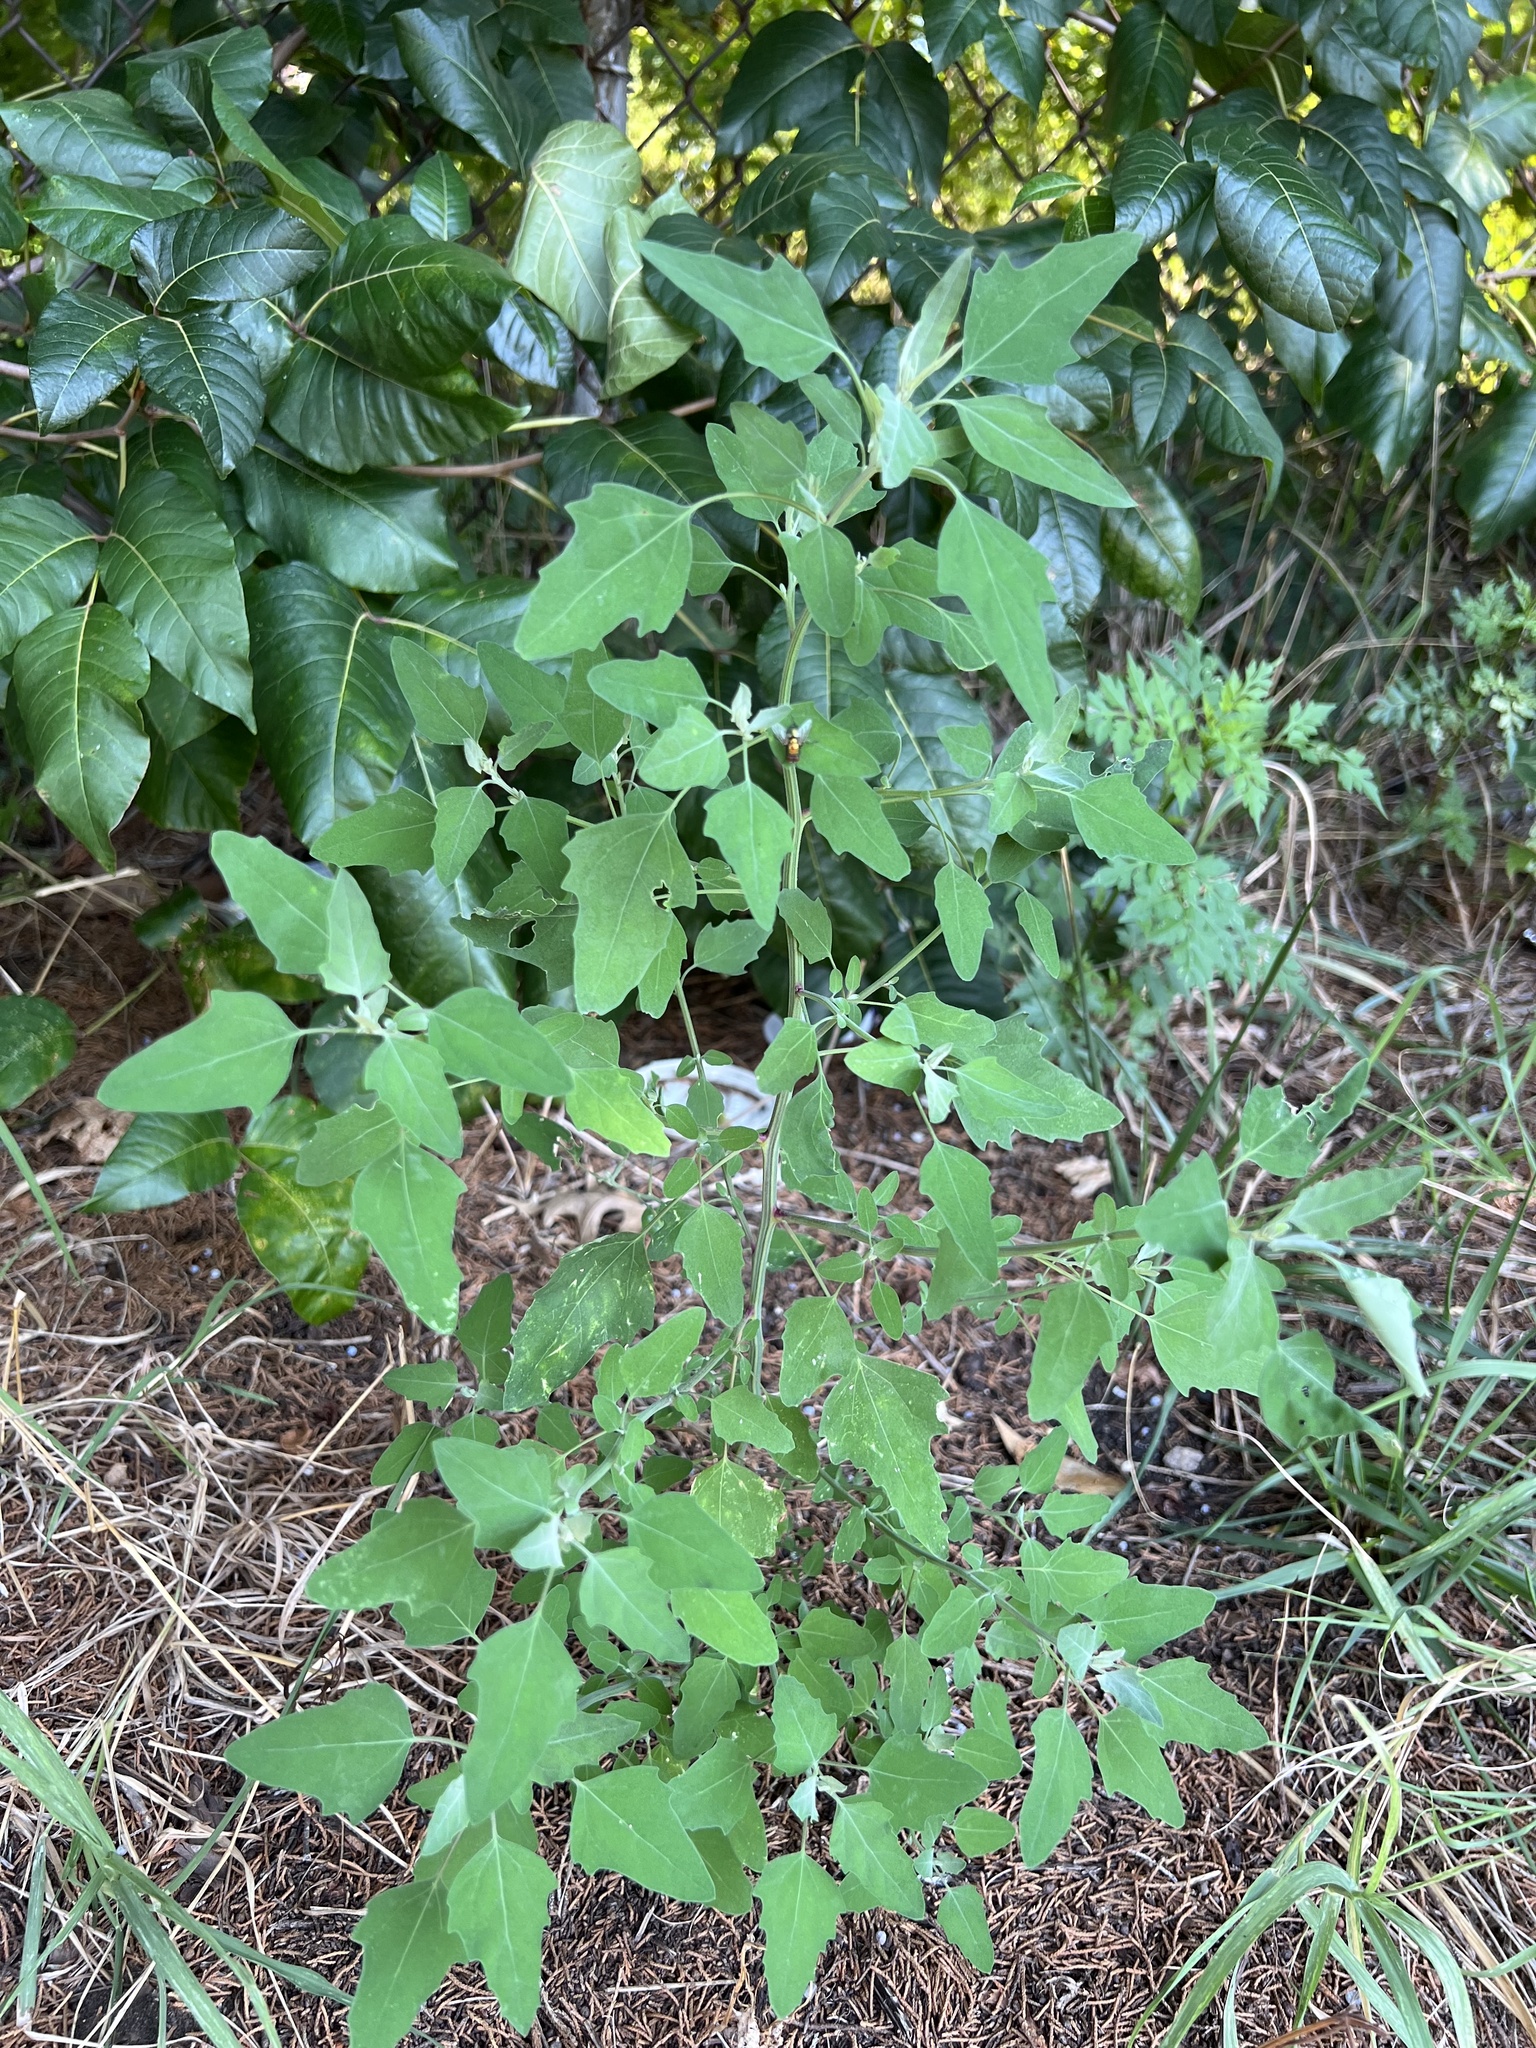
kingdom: Plantae
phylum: Tracheophyta
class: Magnoliopsida
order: Caryophyllales
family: Amaranthaceae
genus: Chenopodium
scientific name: Chenopodium album
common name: Fat-hen
